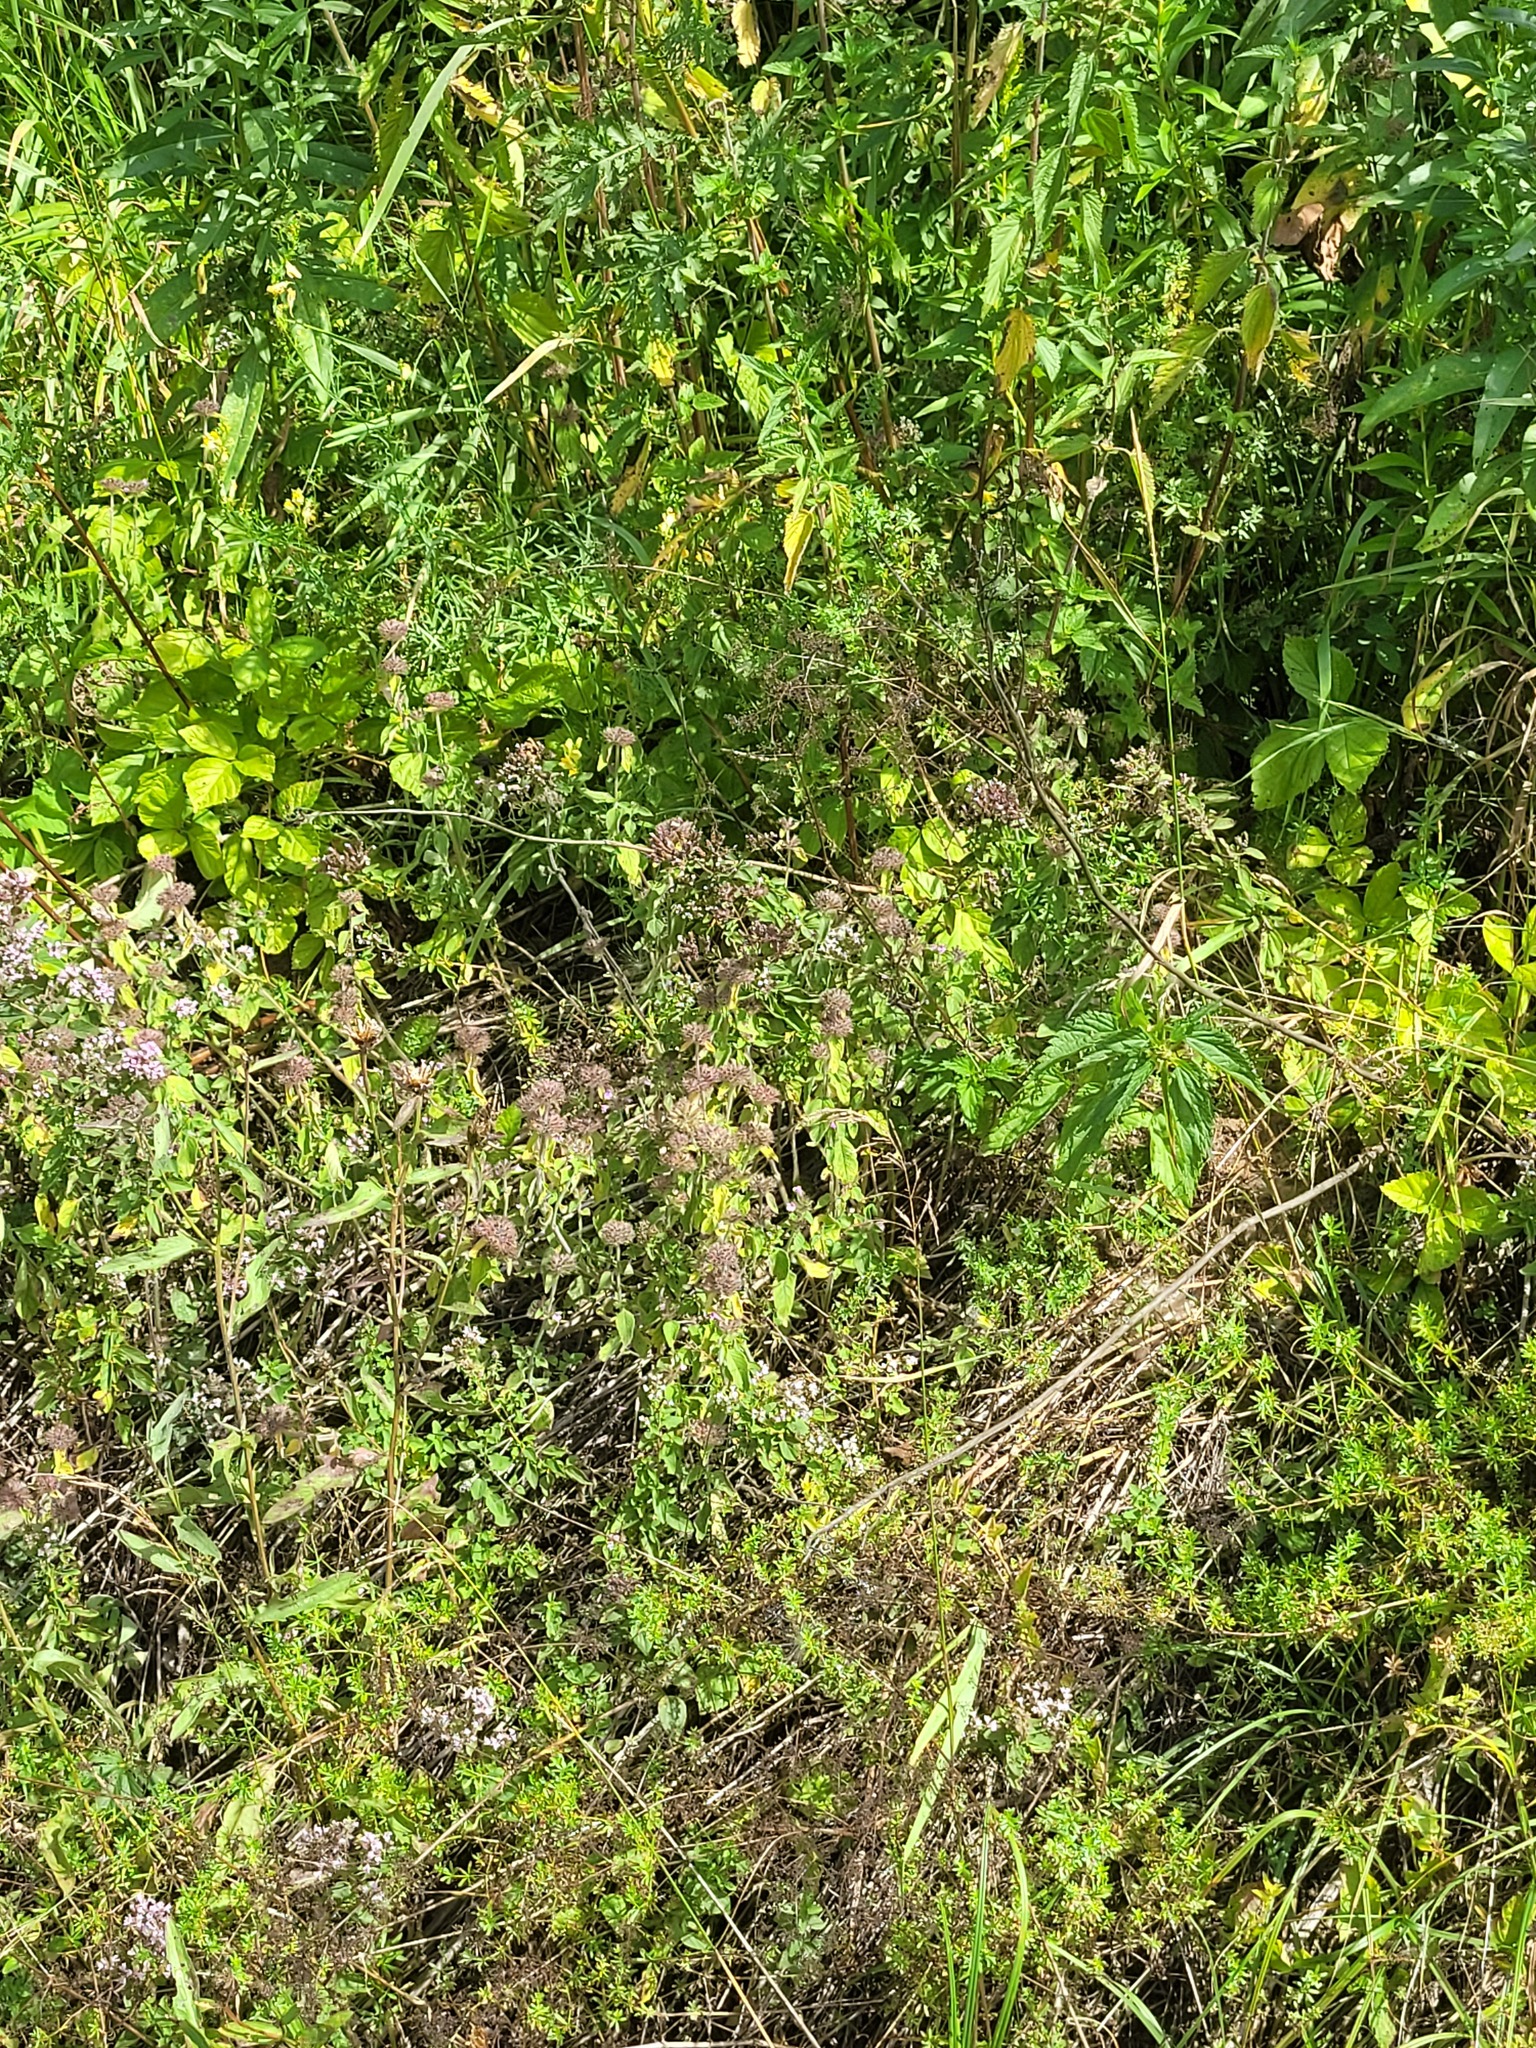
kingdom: Plantae
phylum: Tracheophyta
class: Magnoliopsida
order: Lamiales
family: Lamiaceae
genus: Clinopodium
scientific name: Clinopodium vulgare
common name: Wild basil
